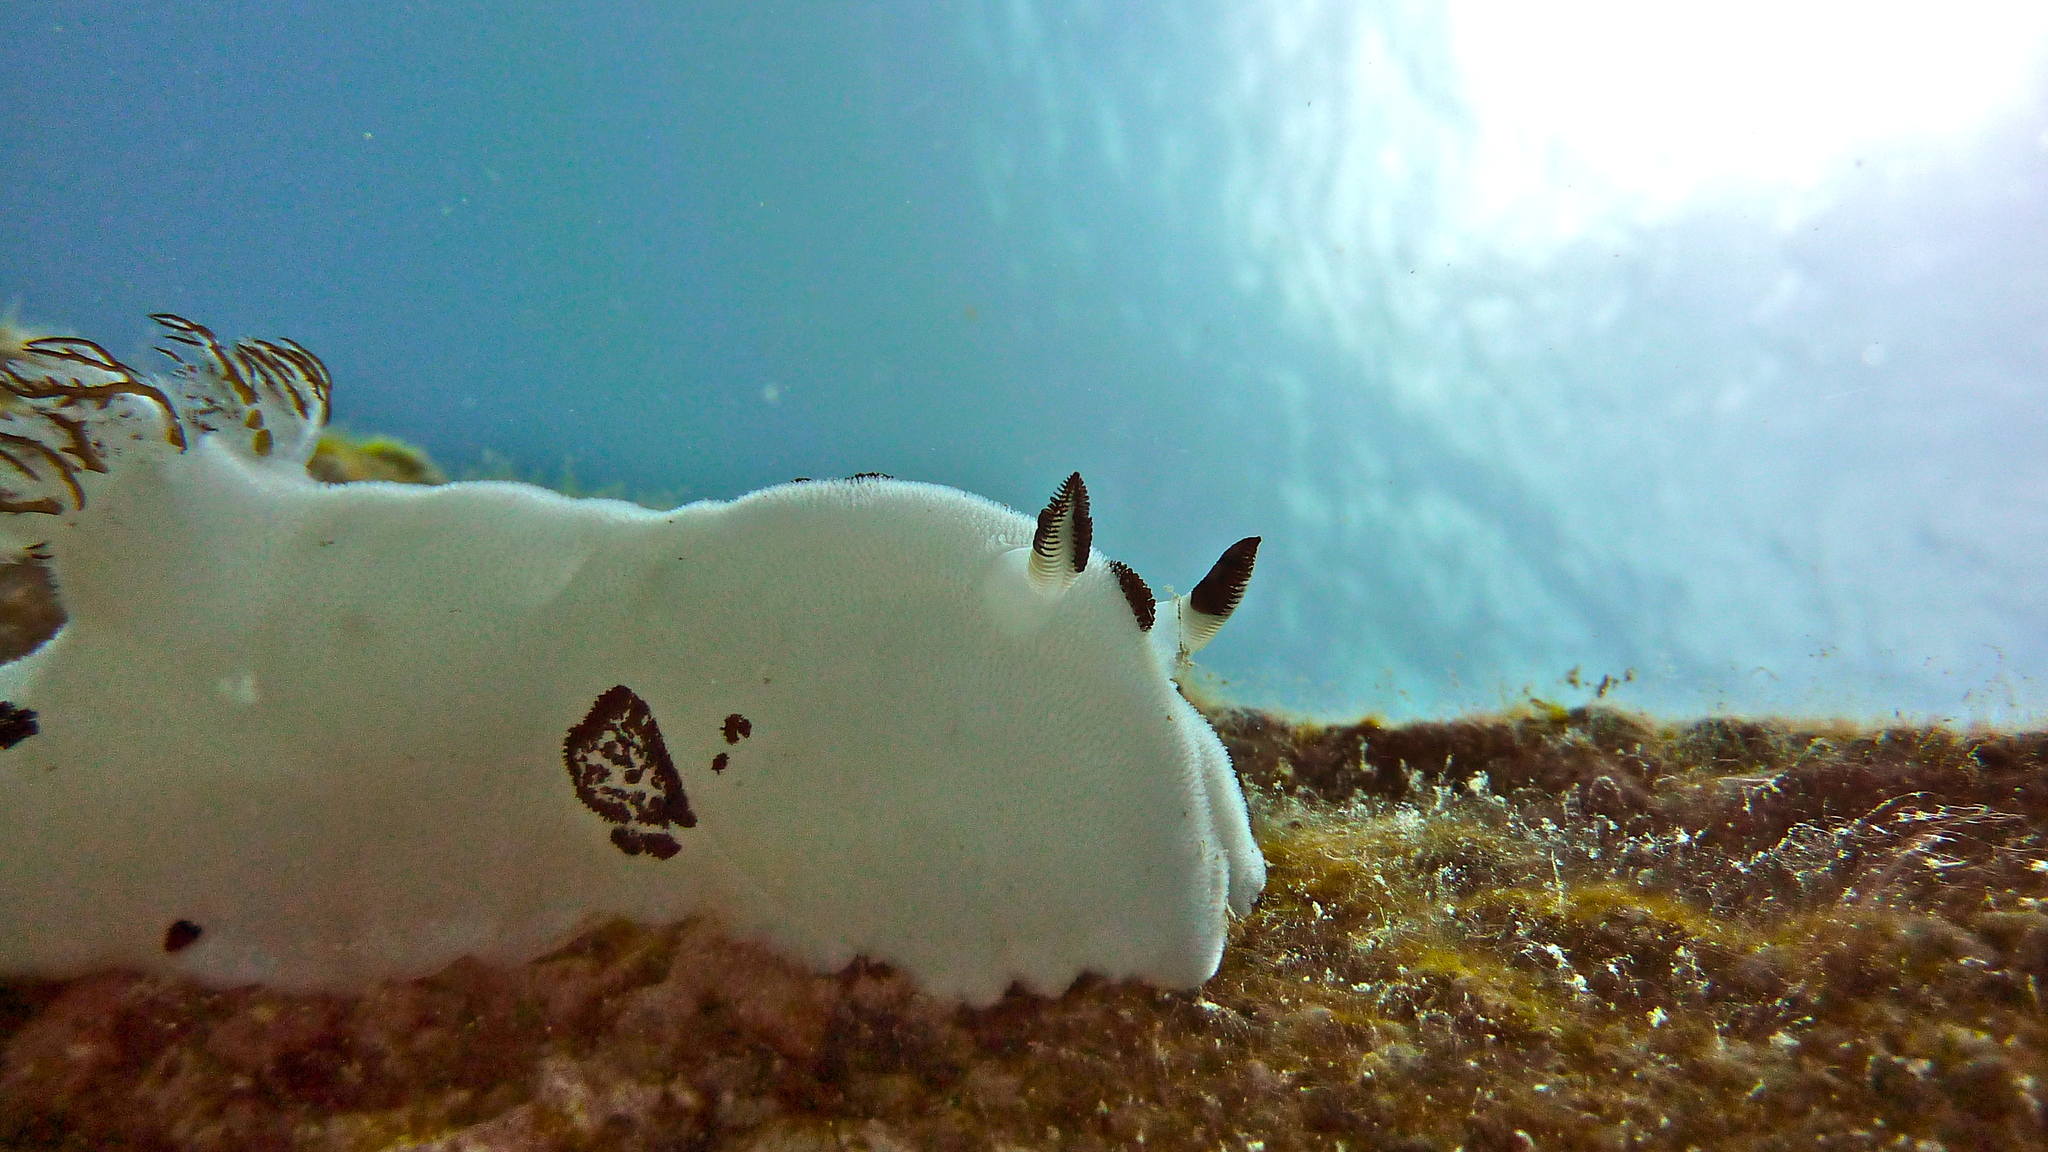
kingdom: Animalia
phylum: Mollusca
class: Gastropoda
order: Nudibranchia
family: Discodorididae
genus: Jorunna
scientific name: Jorunna funebris
